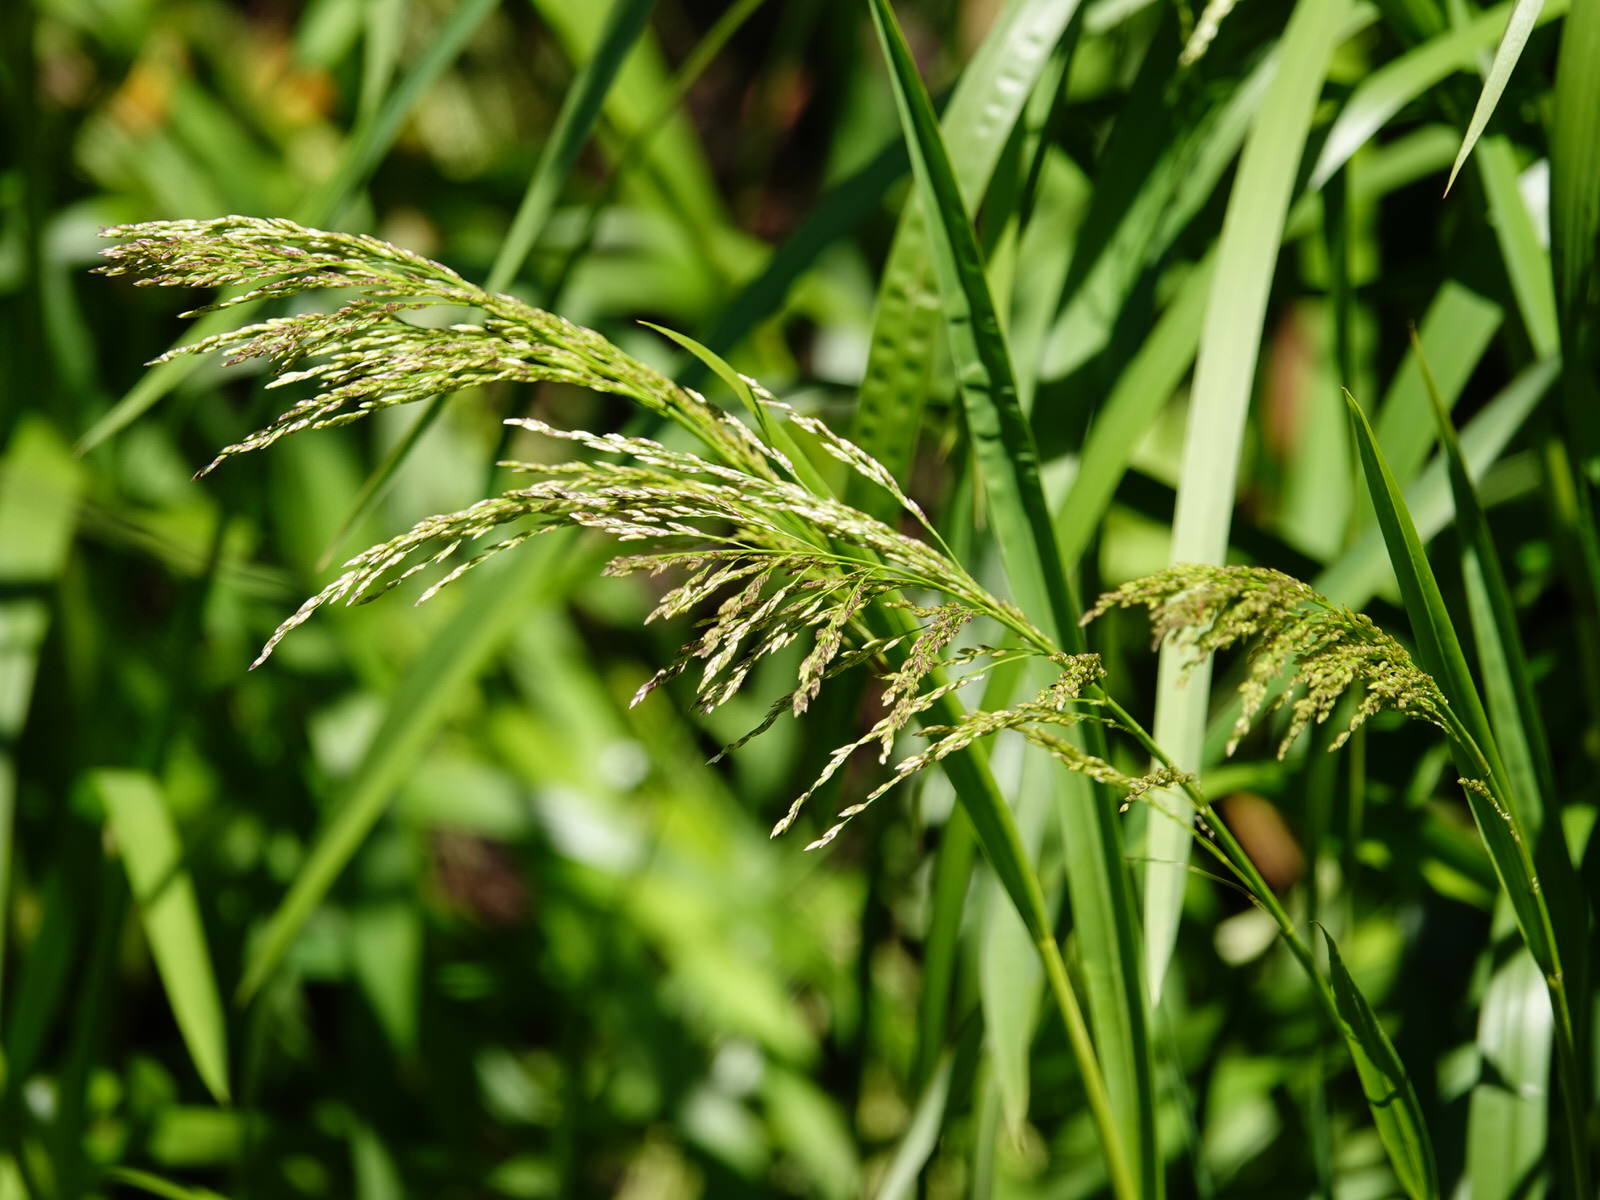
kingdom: Plantae
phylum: Tracheophyta
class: Liliopsida
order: Poales
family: Poaceae
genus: Glyceria
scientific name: Glyceria maxima
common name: Reed mannagrass
